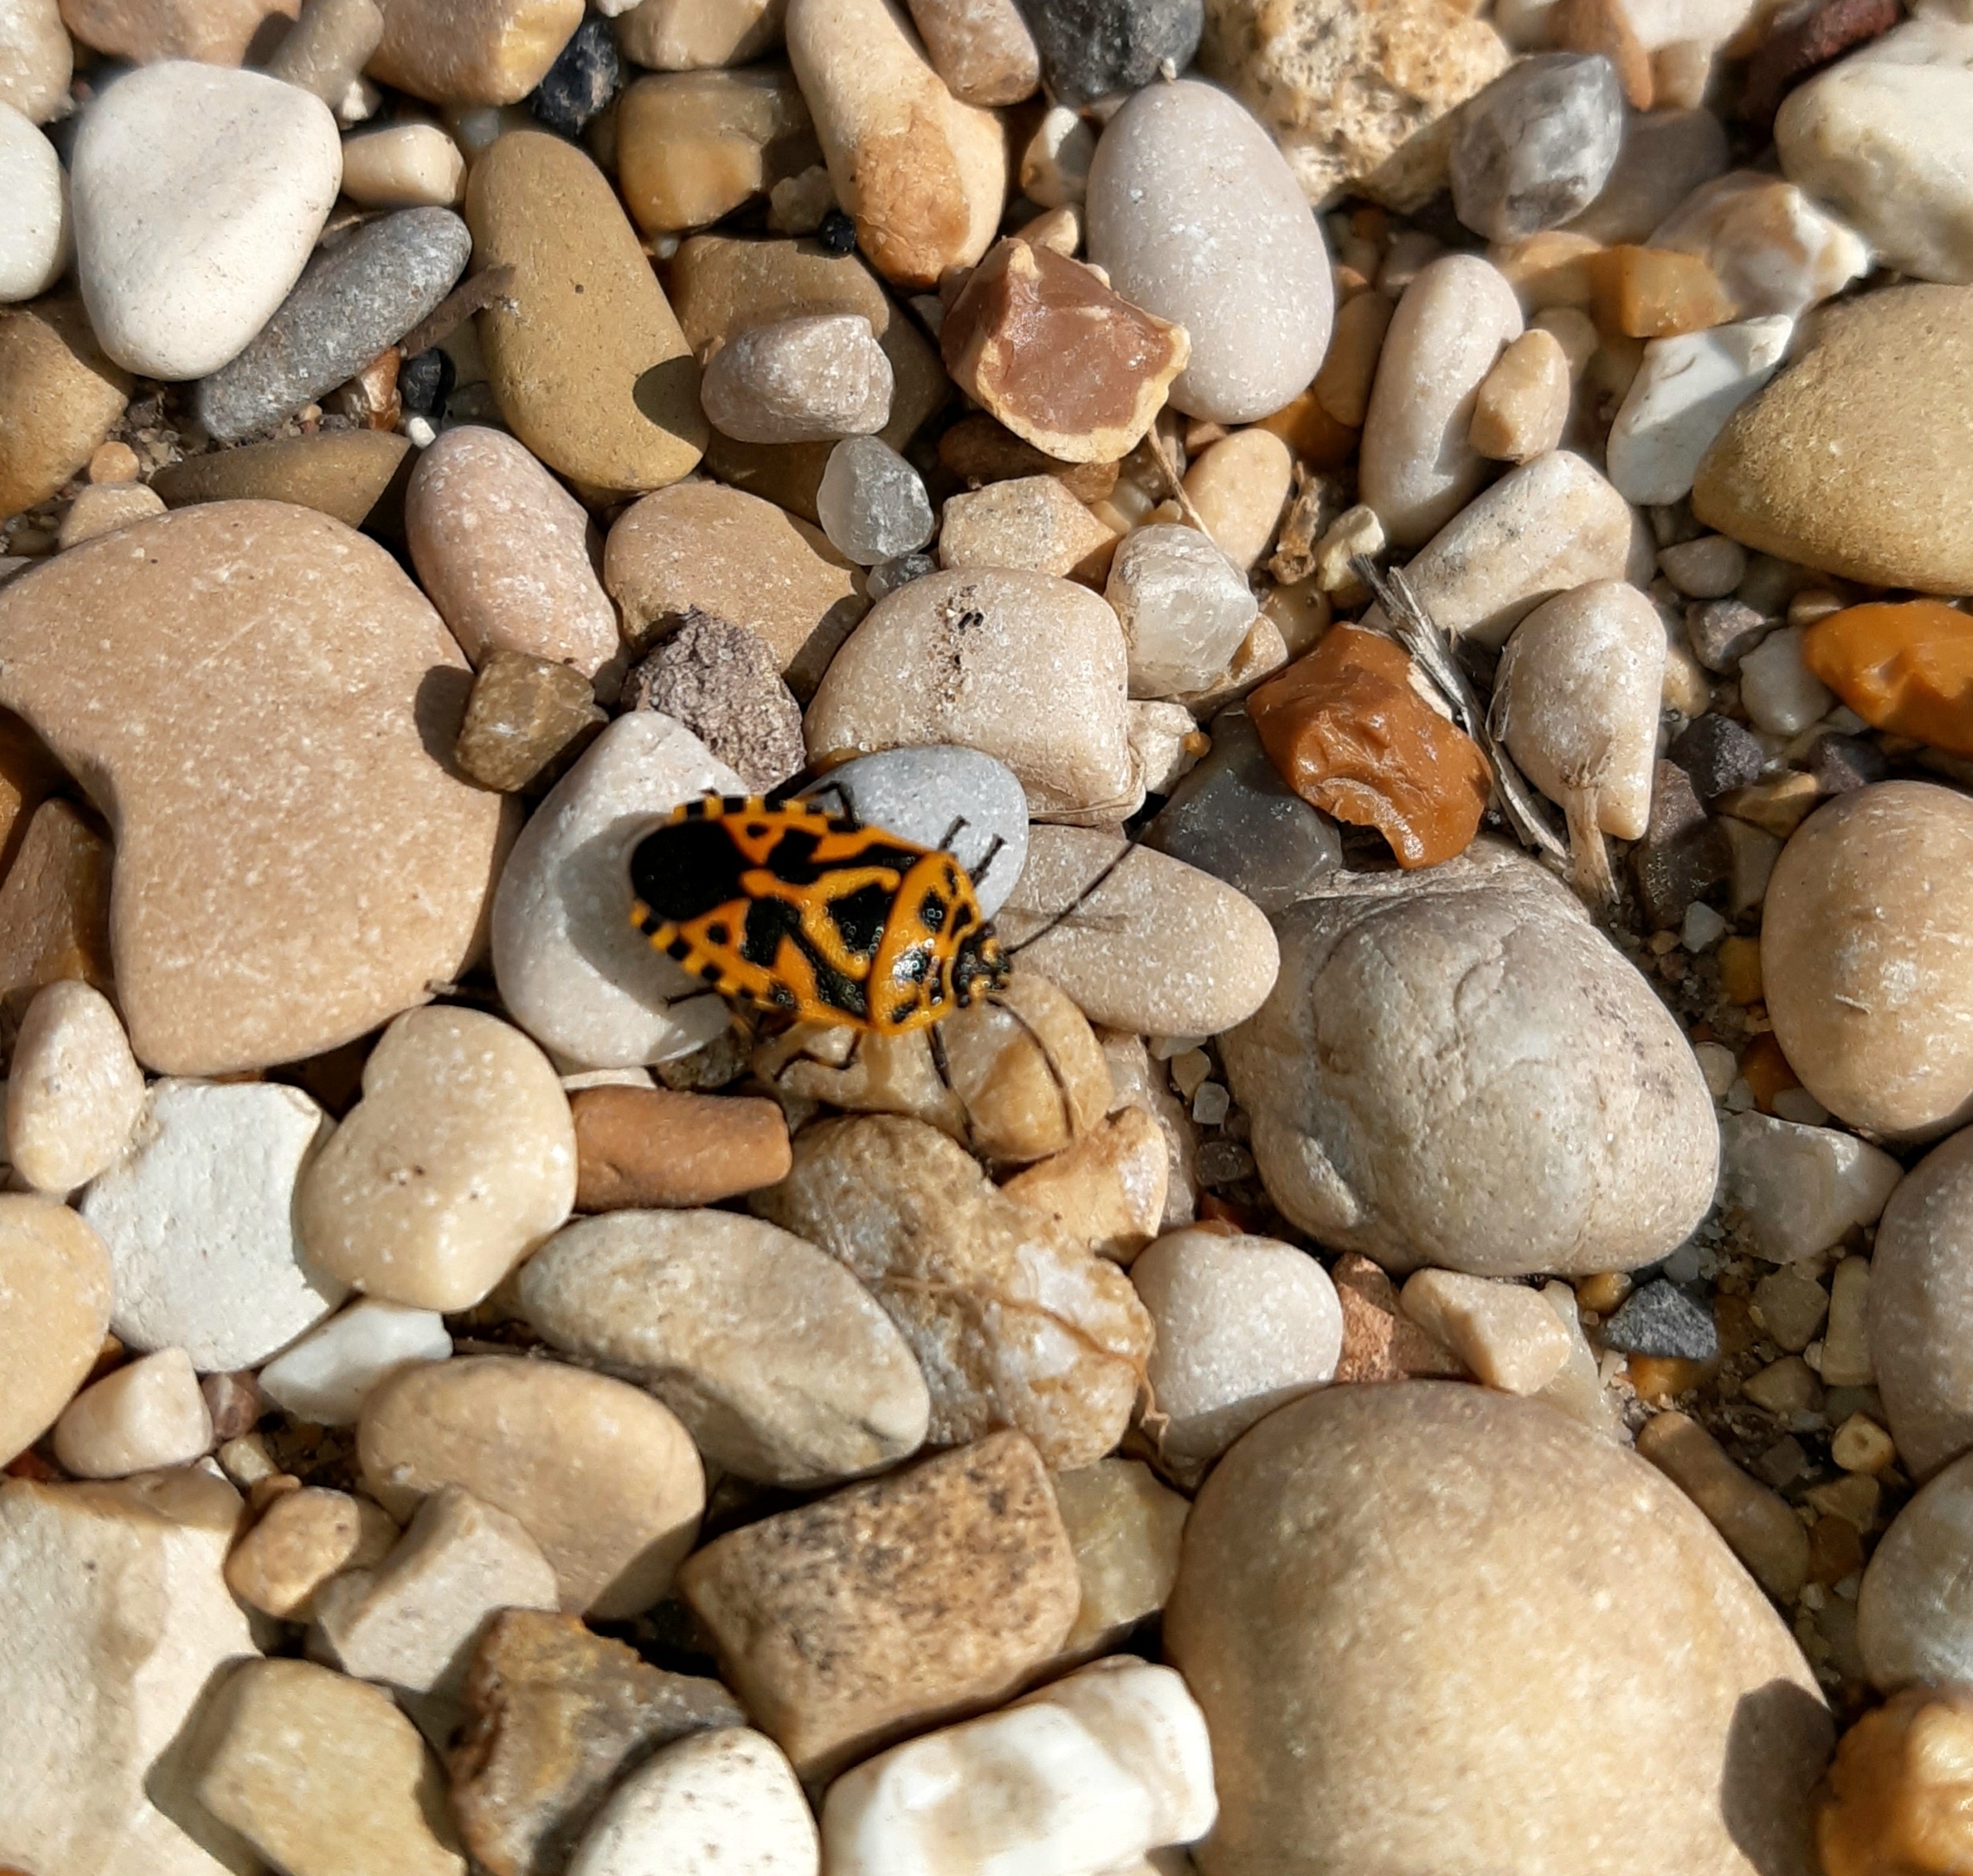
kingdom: Animalia
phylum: Arthropoda
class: Insecta
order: Hemiptera
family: Pentatomidae
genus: Eurydema
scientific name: Eurydema ventralis
